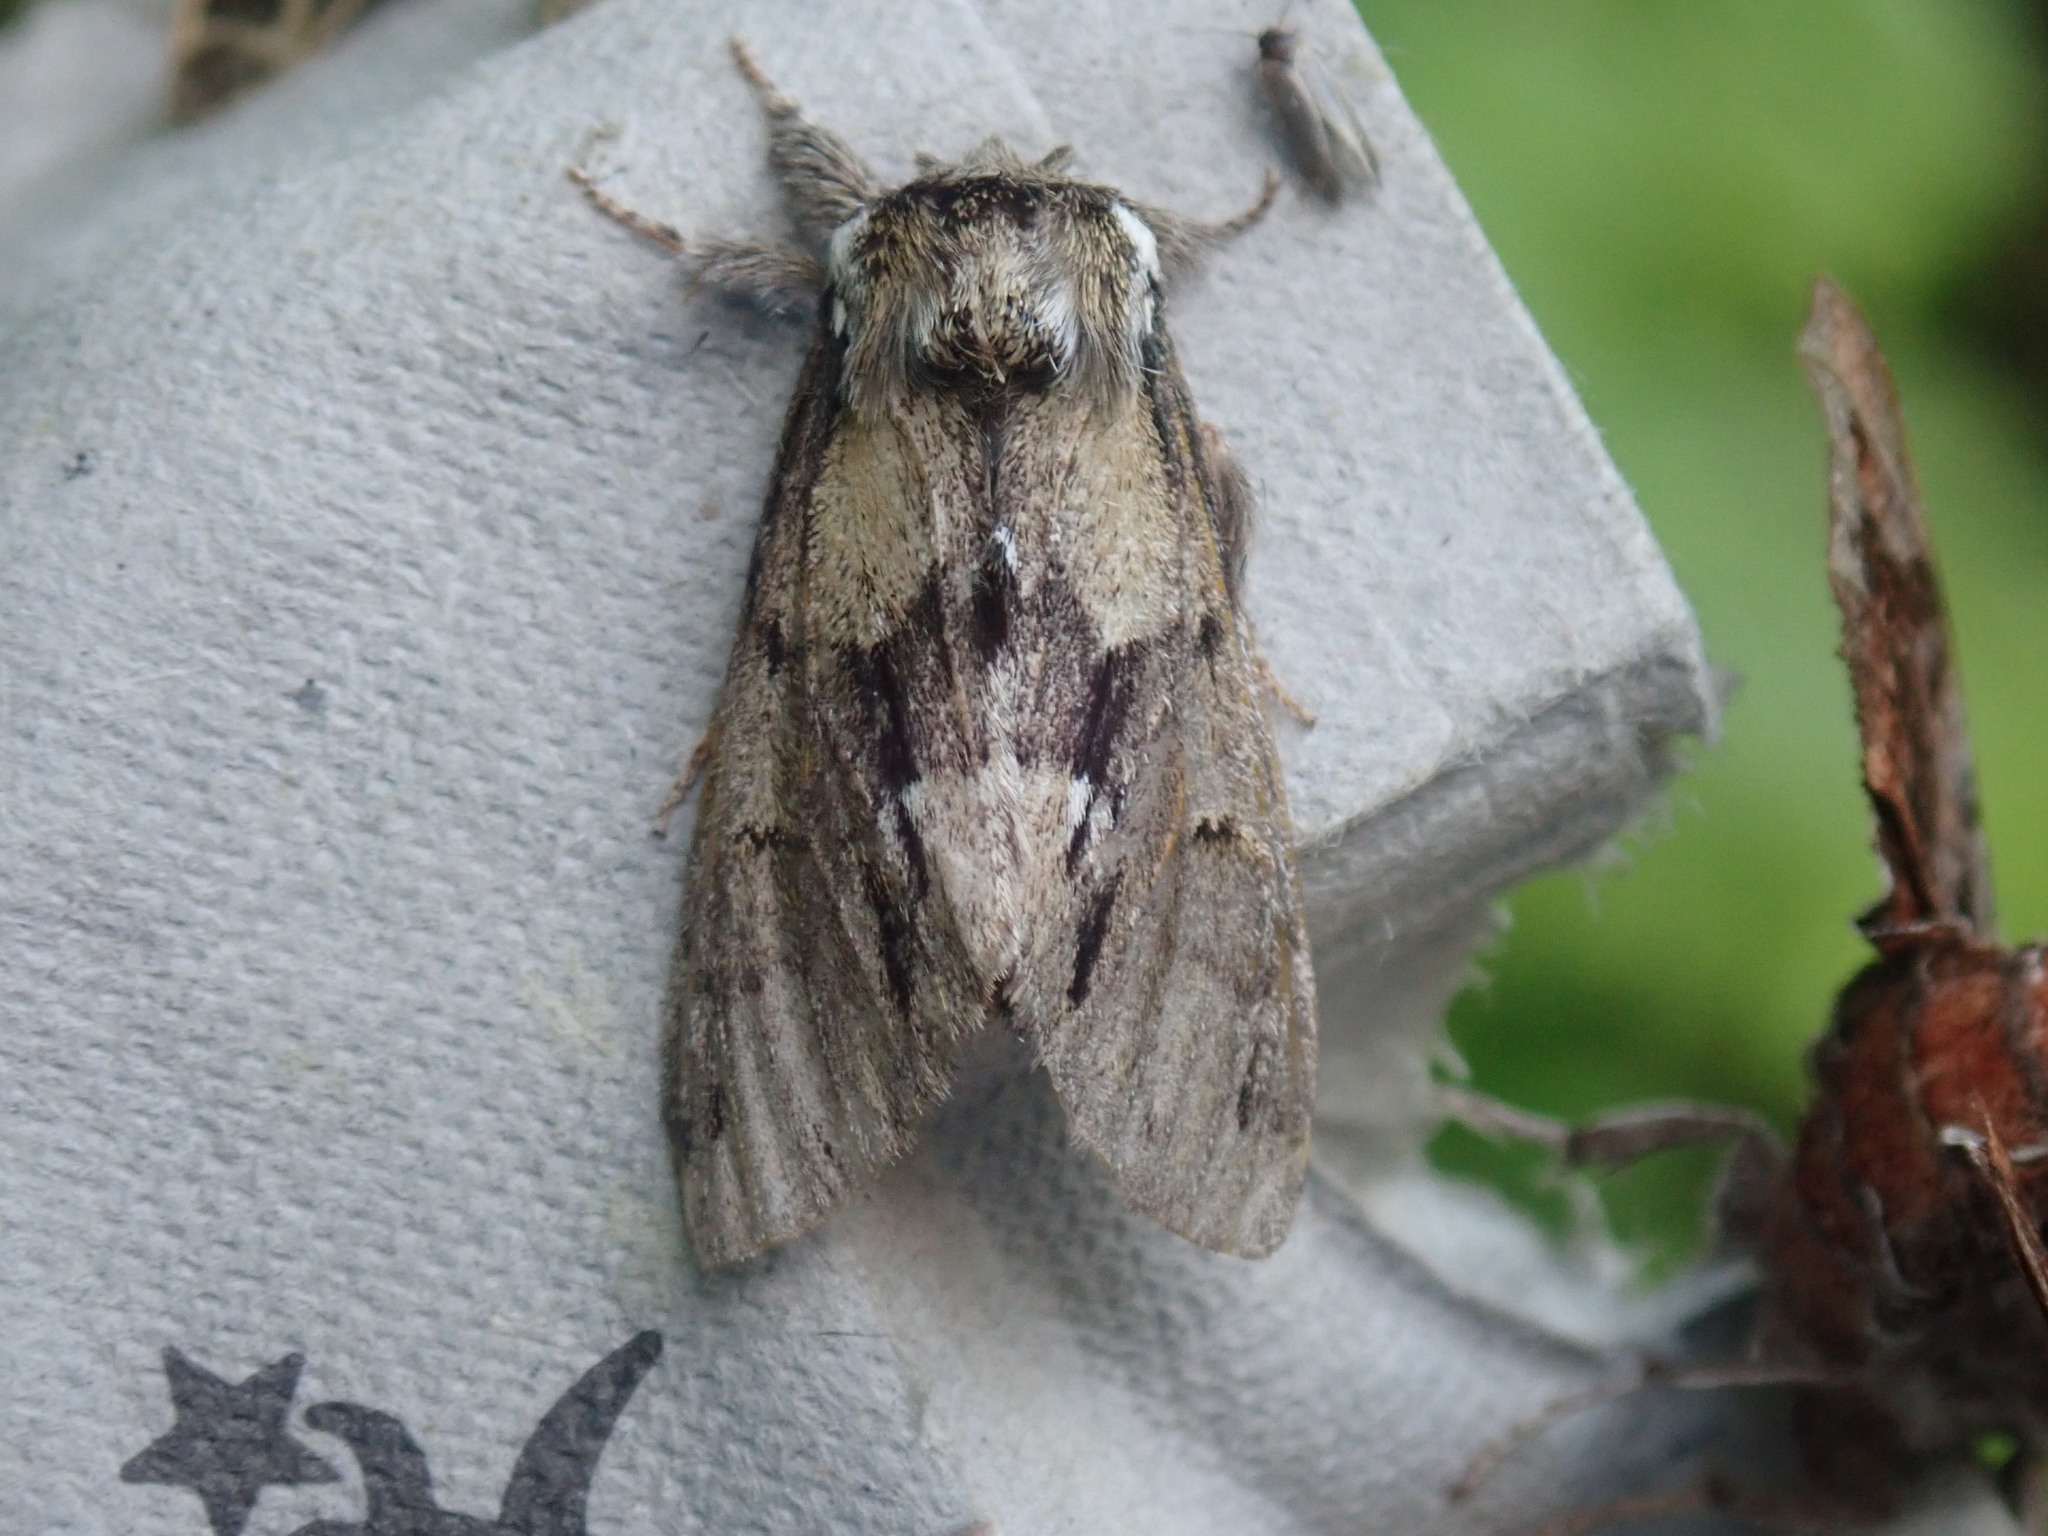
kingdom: Animalia
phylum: Arthropoda
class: Insecta
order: Lepidoptera
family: Notodontidae
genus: Paraeschra
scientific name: Paraeschra georgica
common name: Georgian prominent
